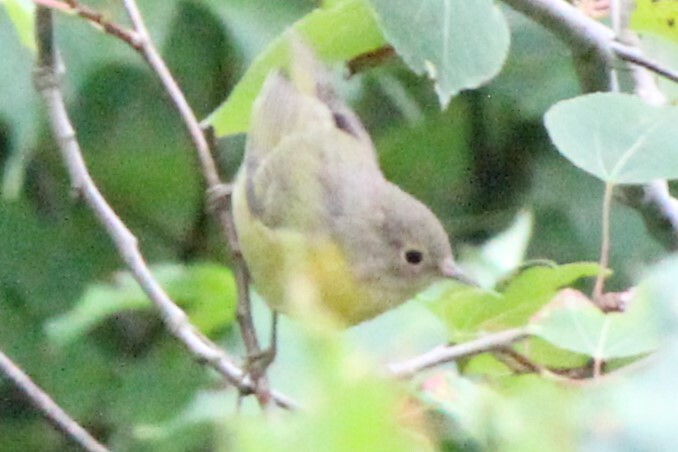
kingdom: Animalia
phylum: Chordata
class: Aves
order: Passeriformes
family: Parulidae
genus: Leiothlypis
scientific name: Leiothlypis ruficapilla
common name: Nashville warbler
